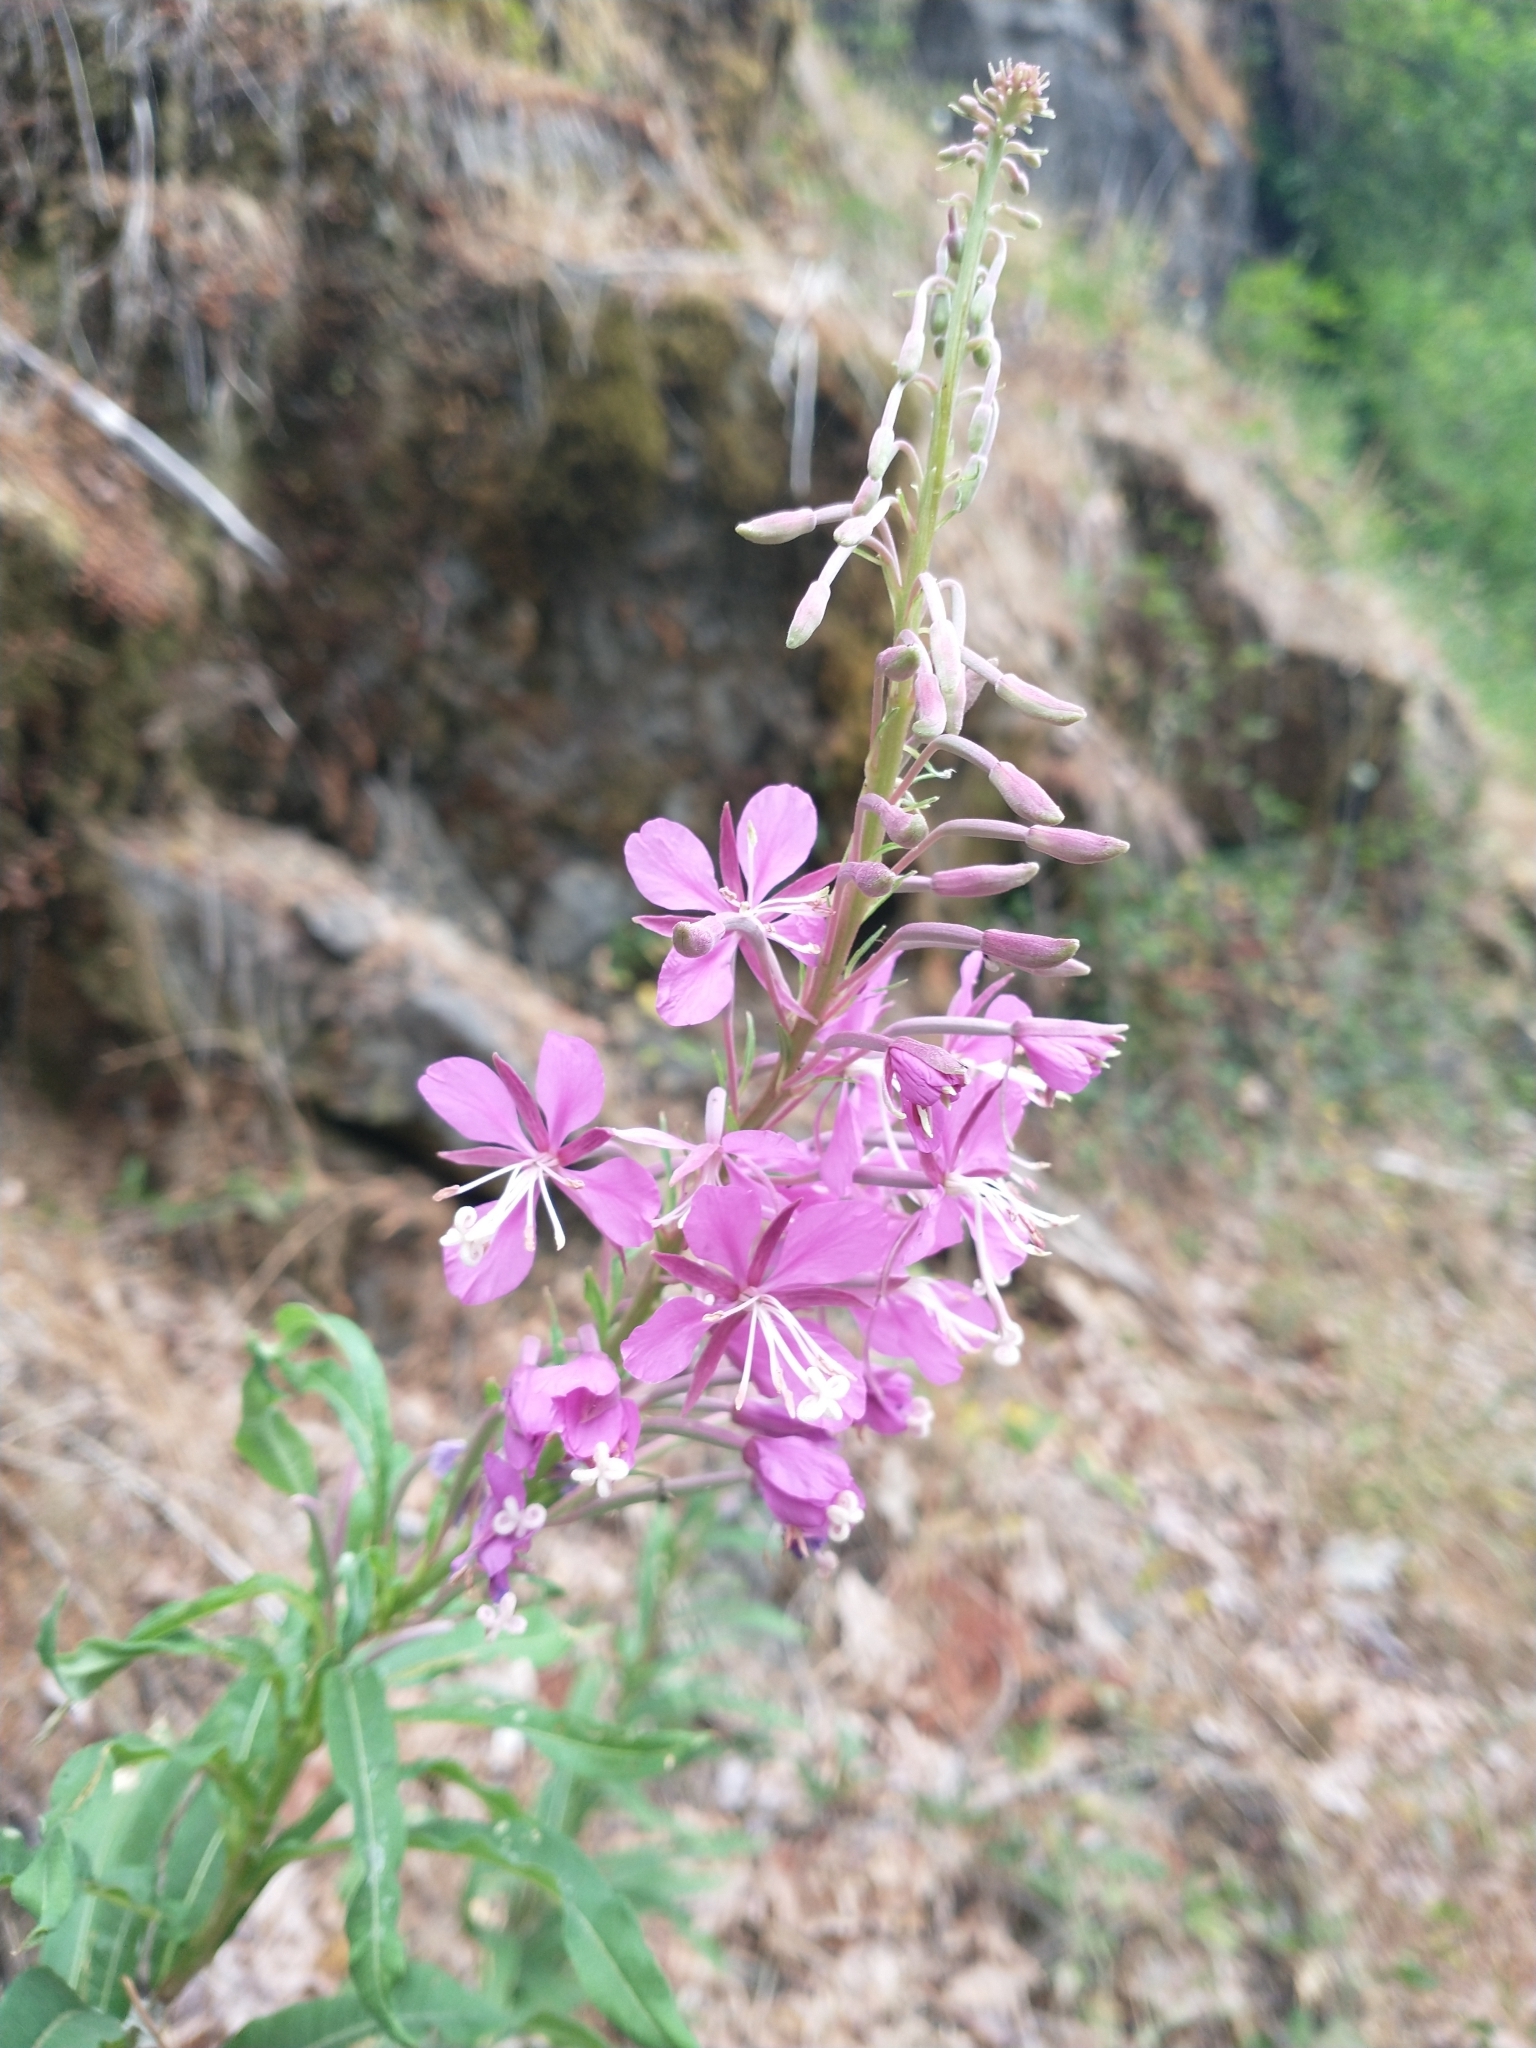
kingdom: Plantae
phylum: Tracheophyta
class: Magnoliopsida
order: Myrtales
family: Onagraceae
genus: Chamaenerion
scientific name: Chamaenerion angustifolium
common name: Fireweed
